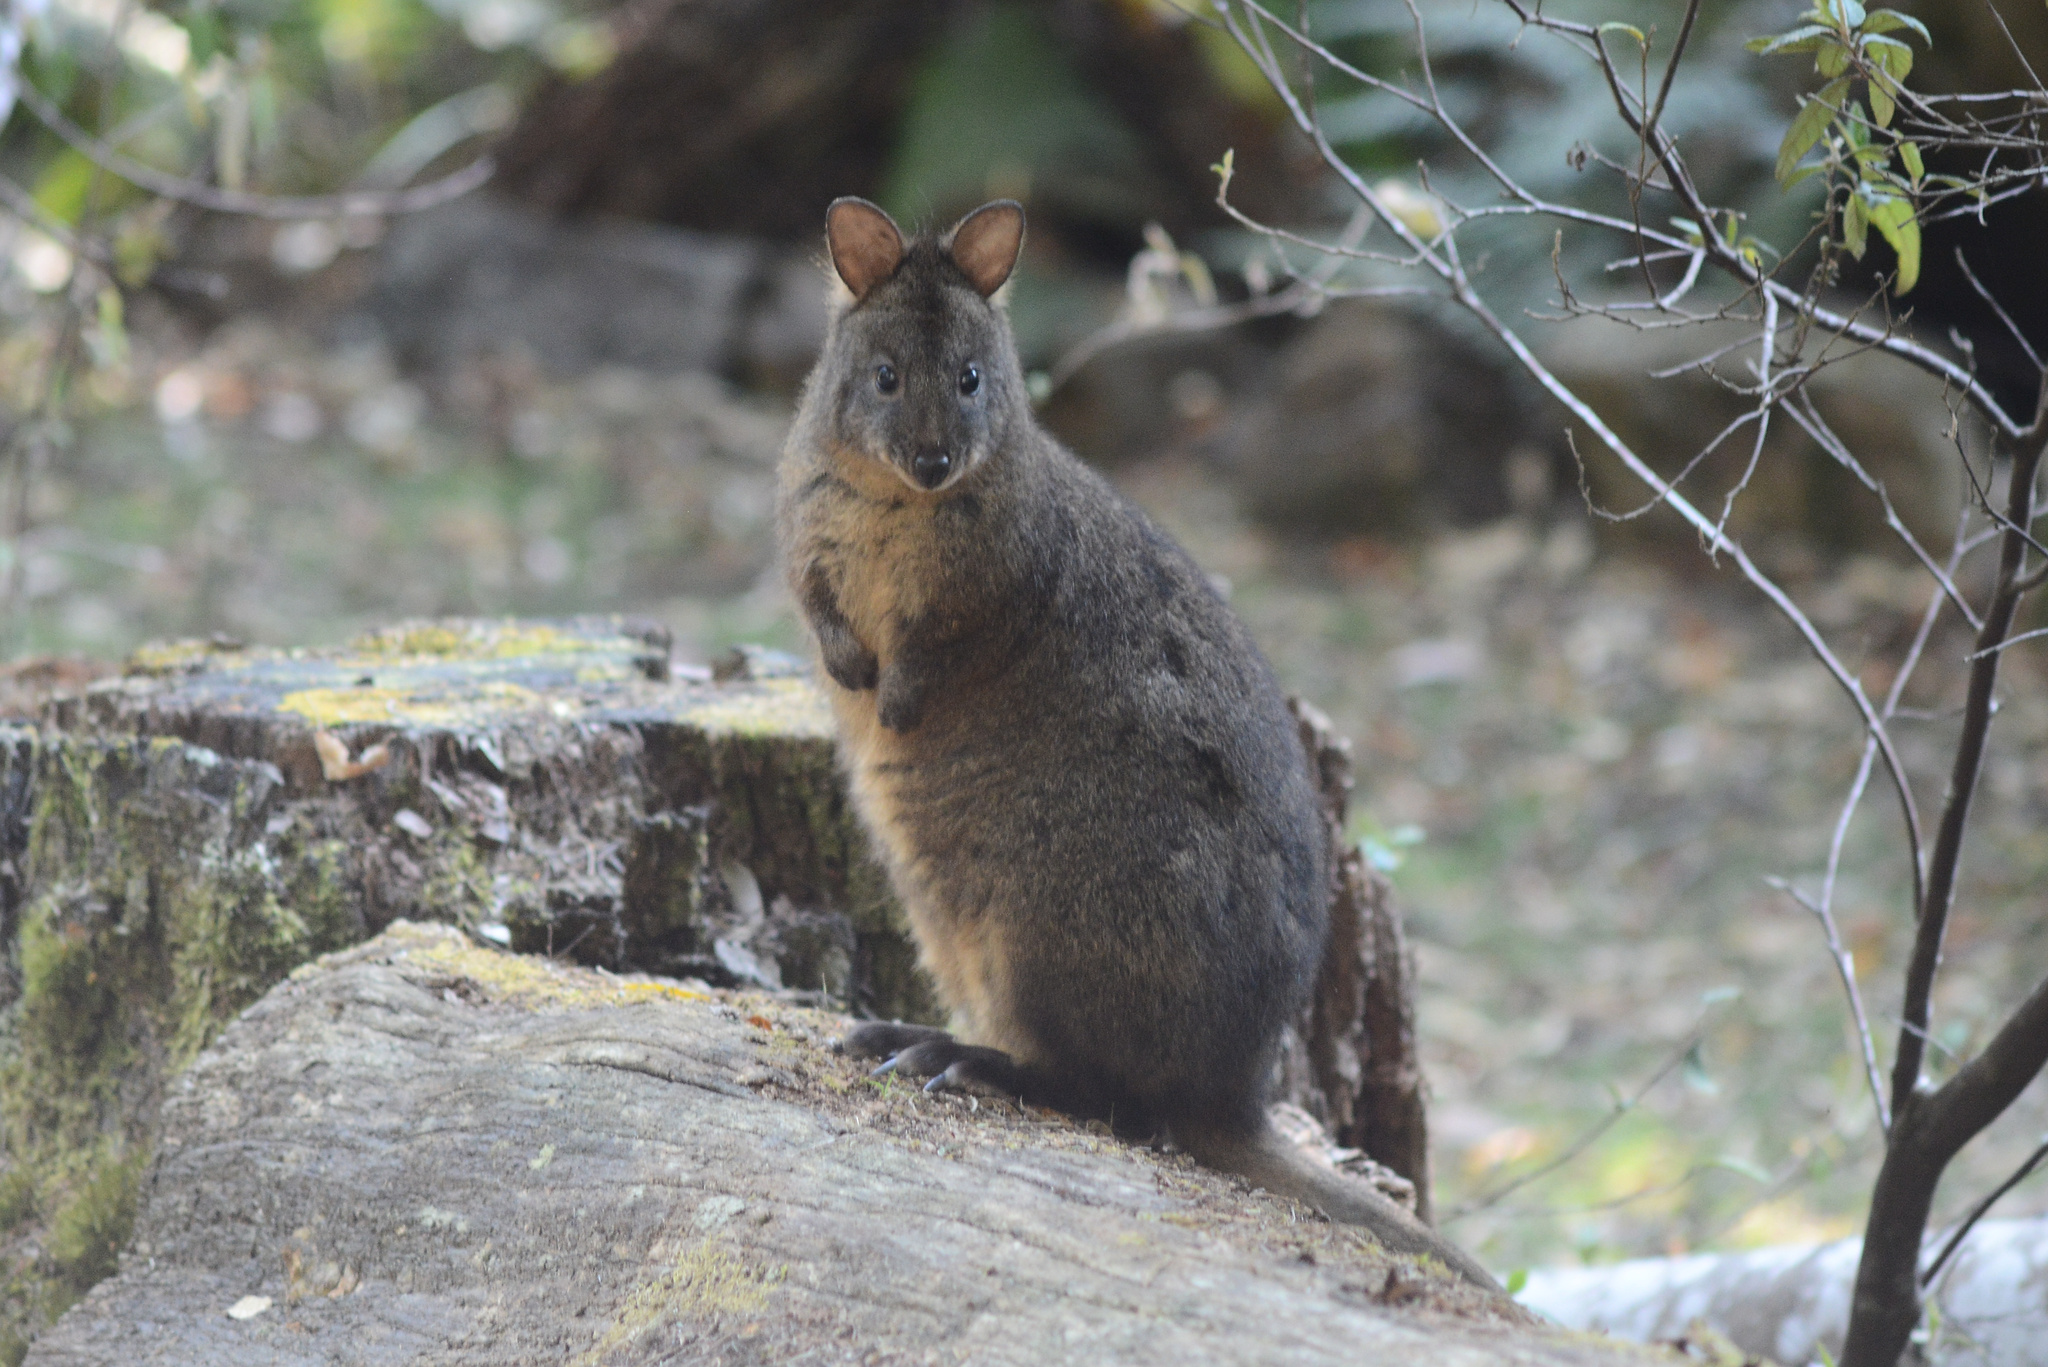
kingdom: Animalia
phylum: Chordata
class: Mammalia
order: Diprotodontia
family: Macropodidae
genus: Thylogale
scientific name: Thylogale billardierii
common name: Tasmanian pademelon
